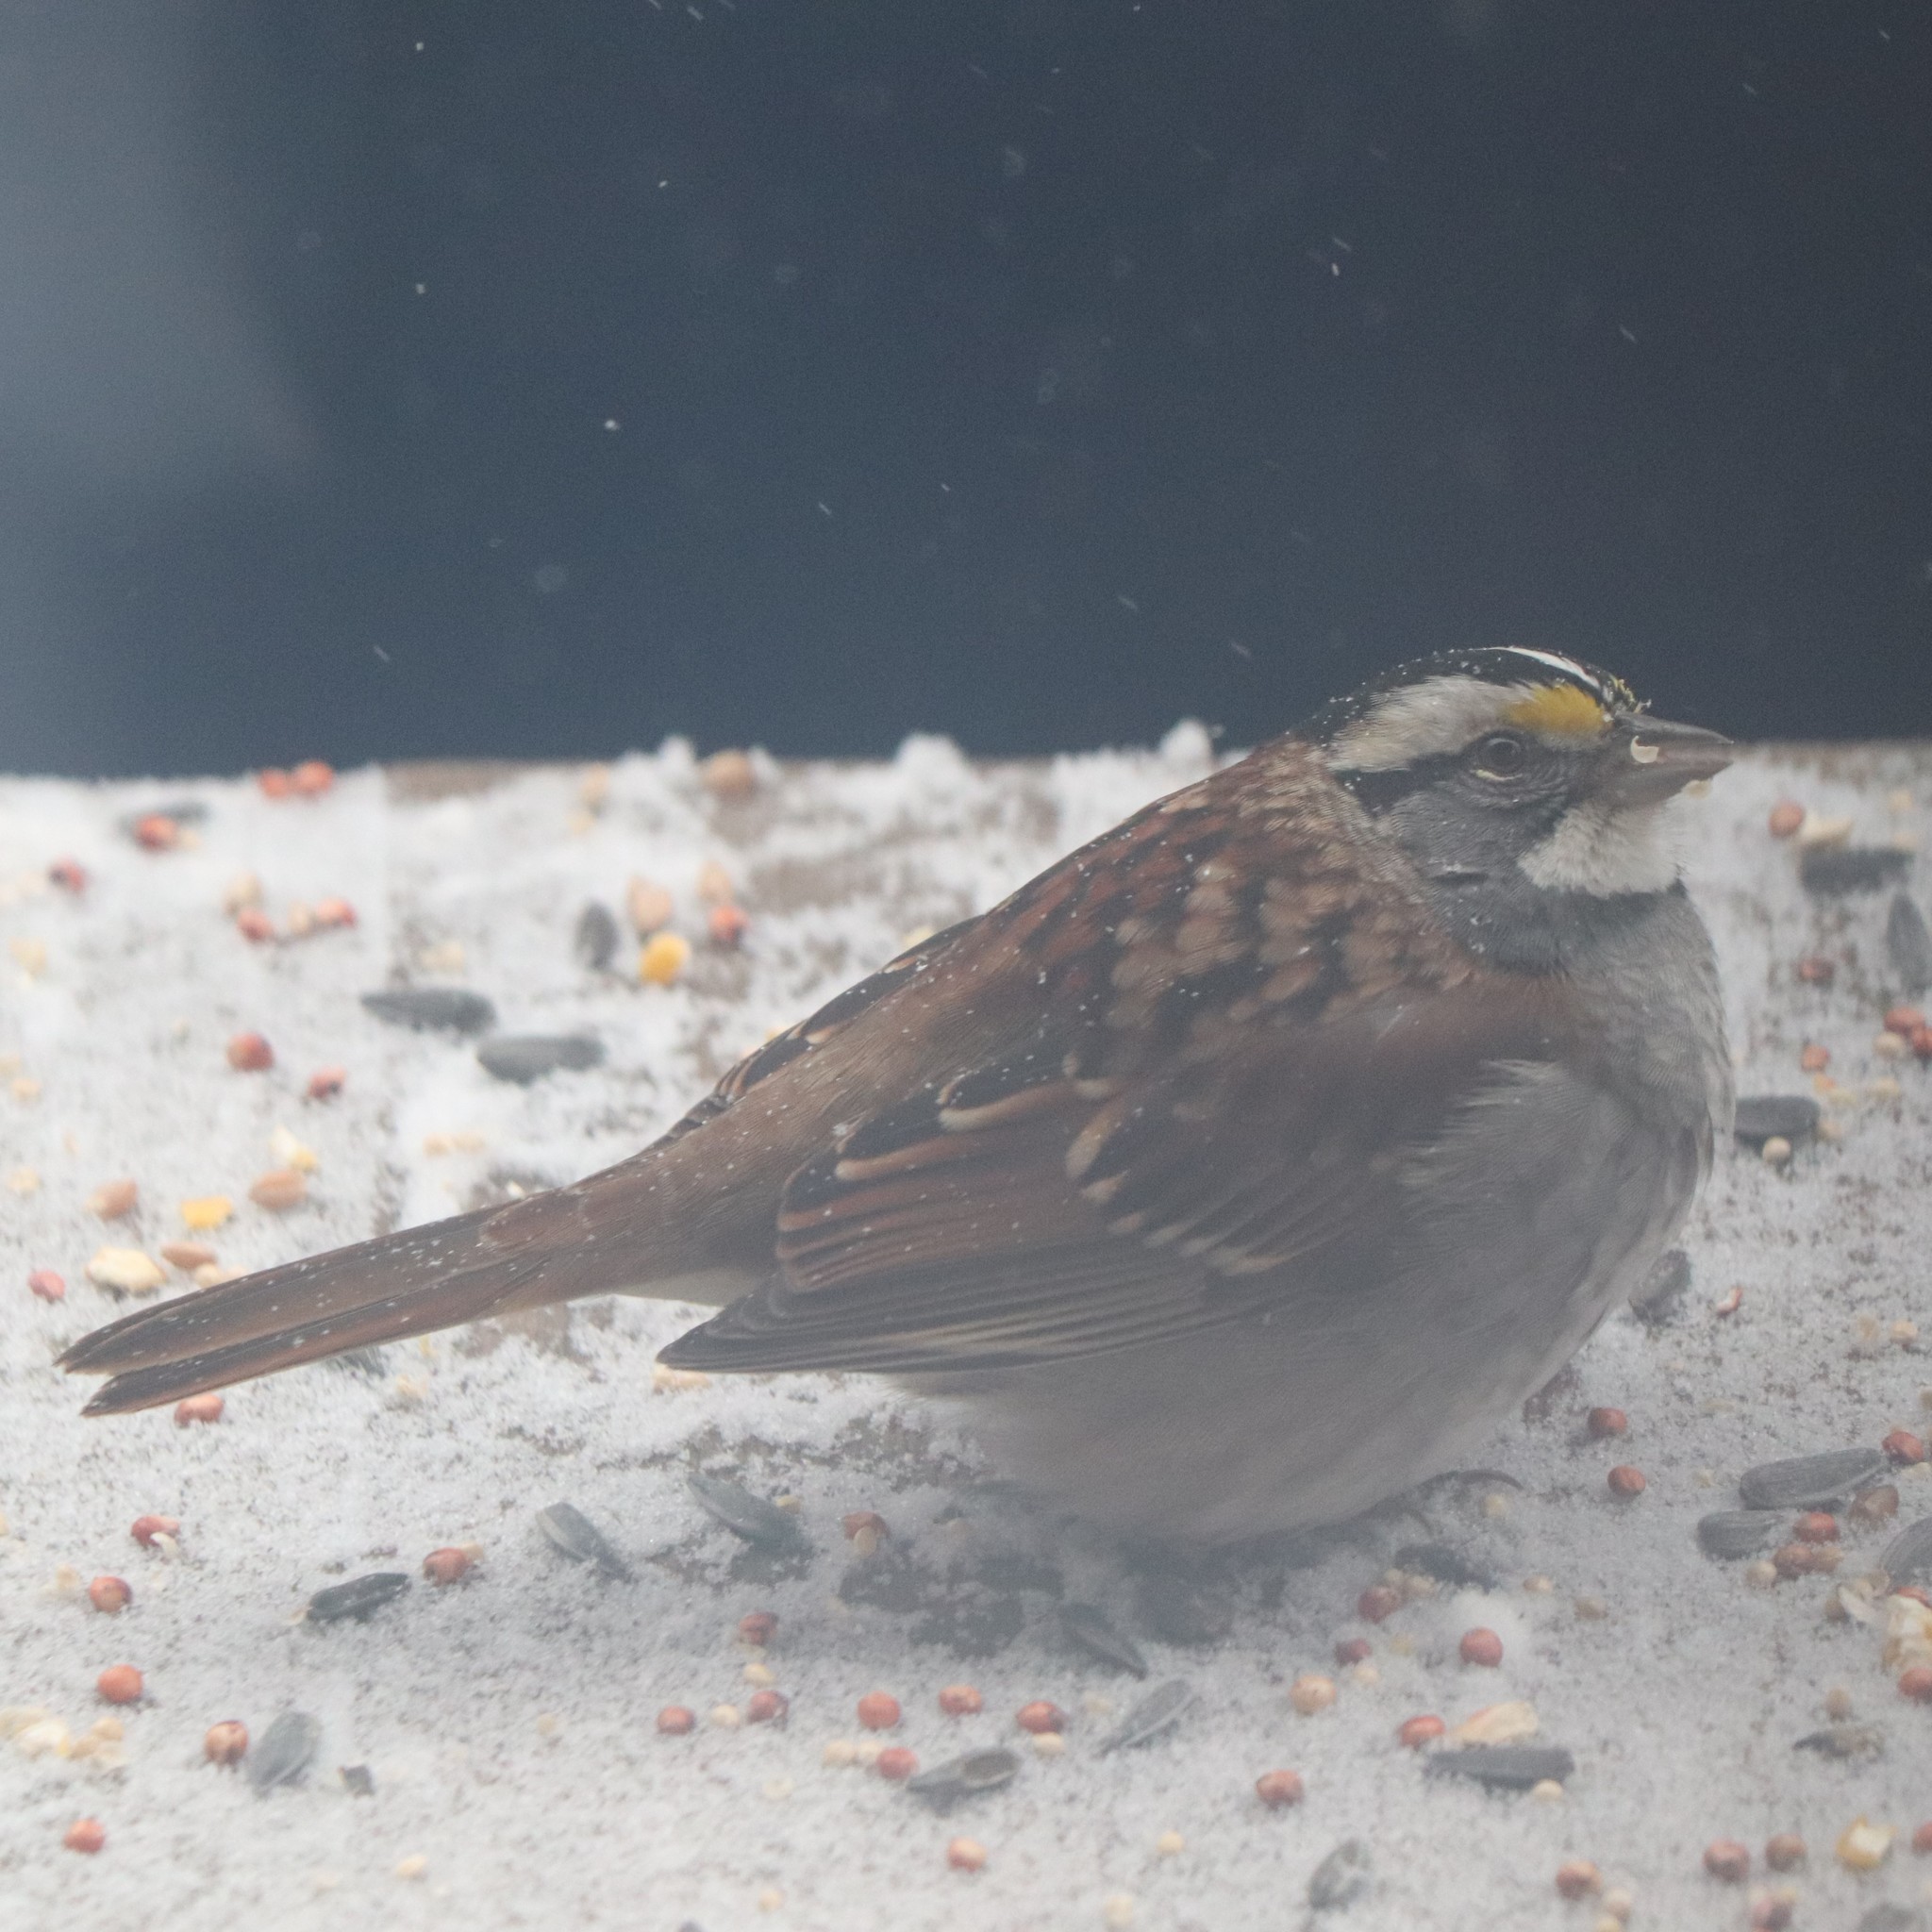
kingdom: Animalia
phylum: Chordata
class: Aves
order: Passeriformes
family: Passerellidae
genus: Zonotrichia
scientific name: Zonotrichia albicollis
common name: White-throated sparrow
